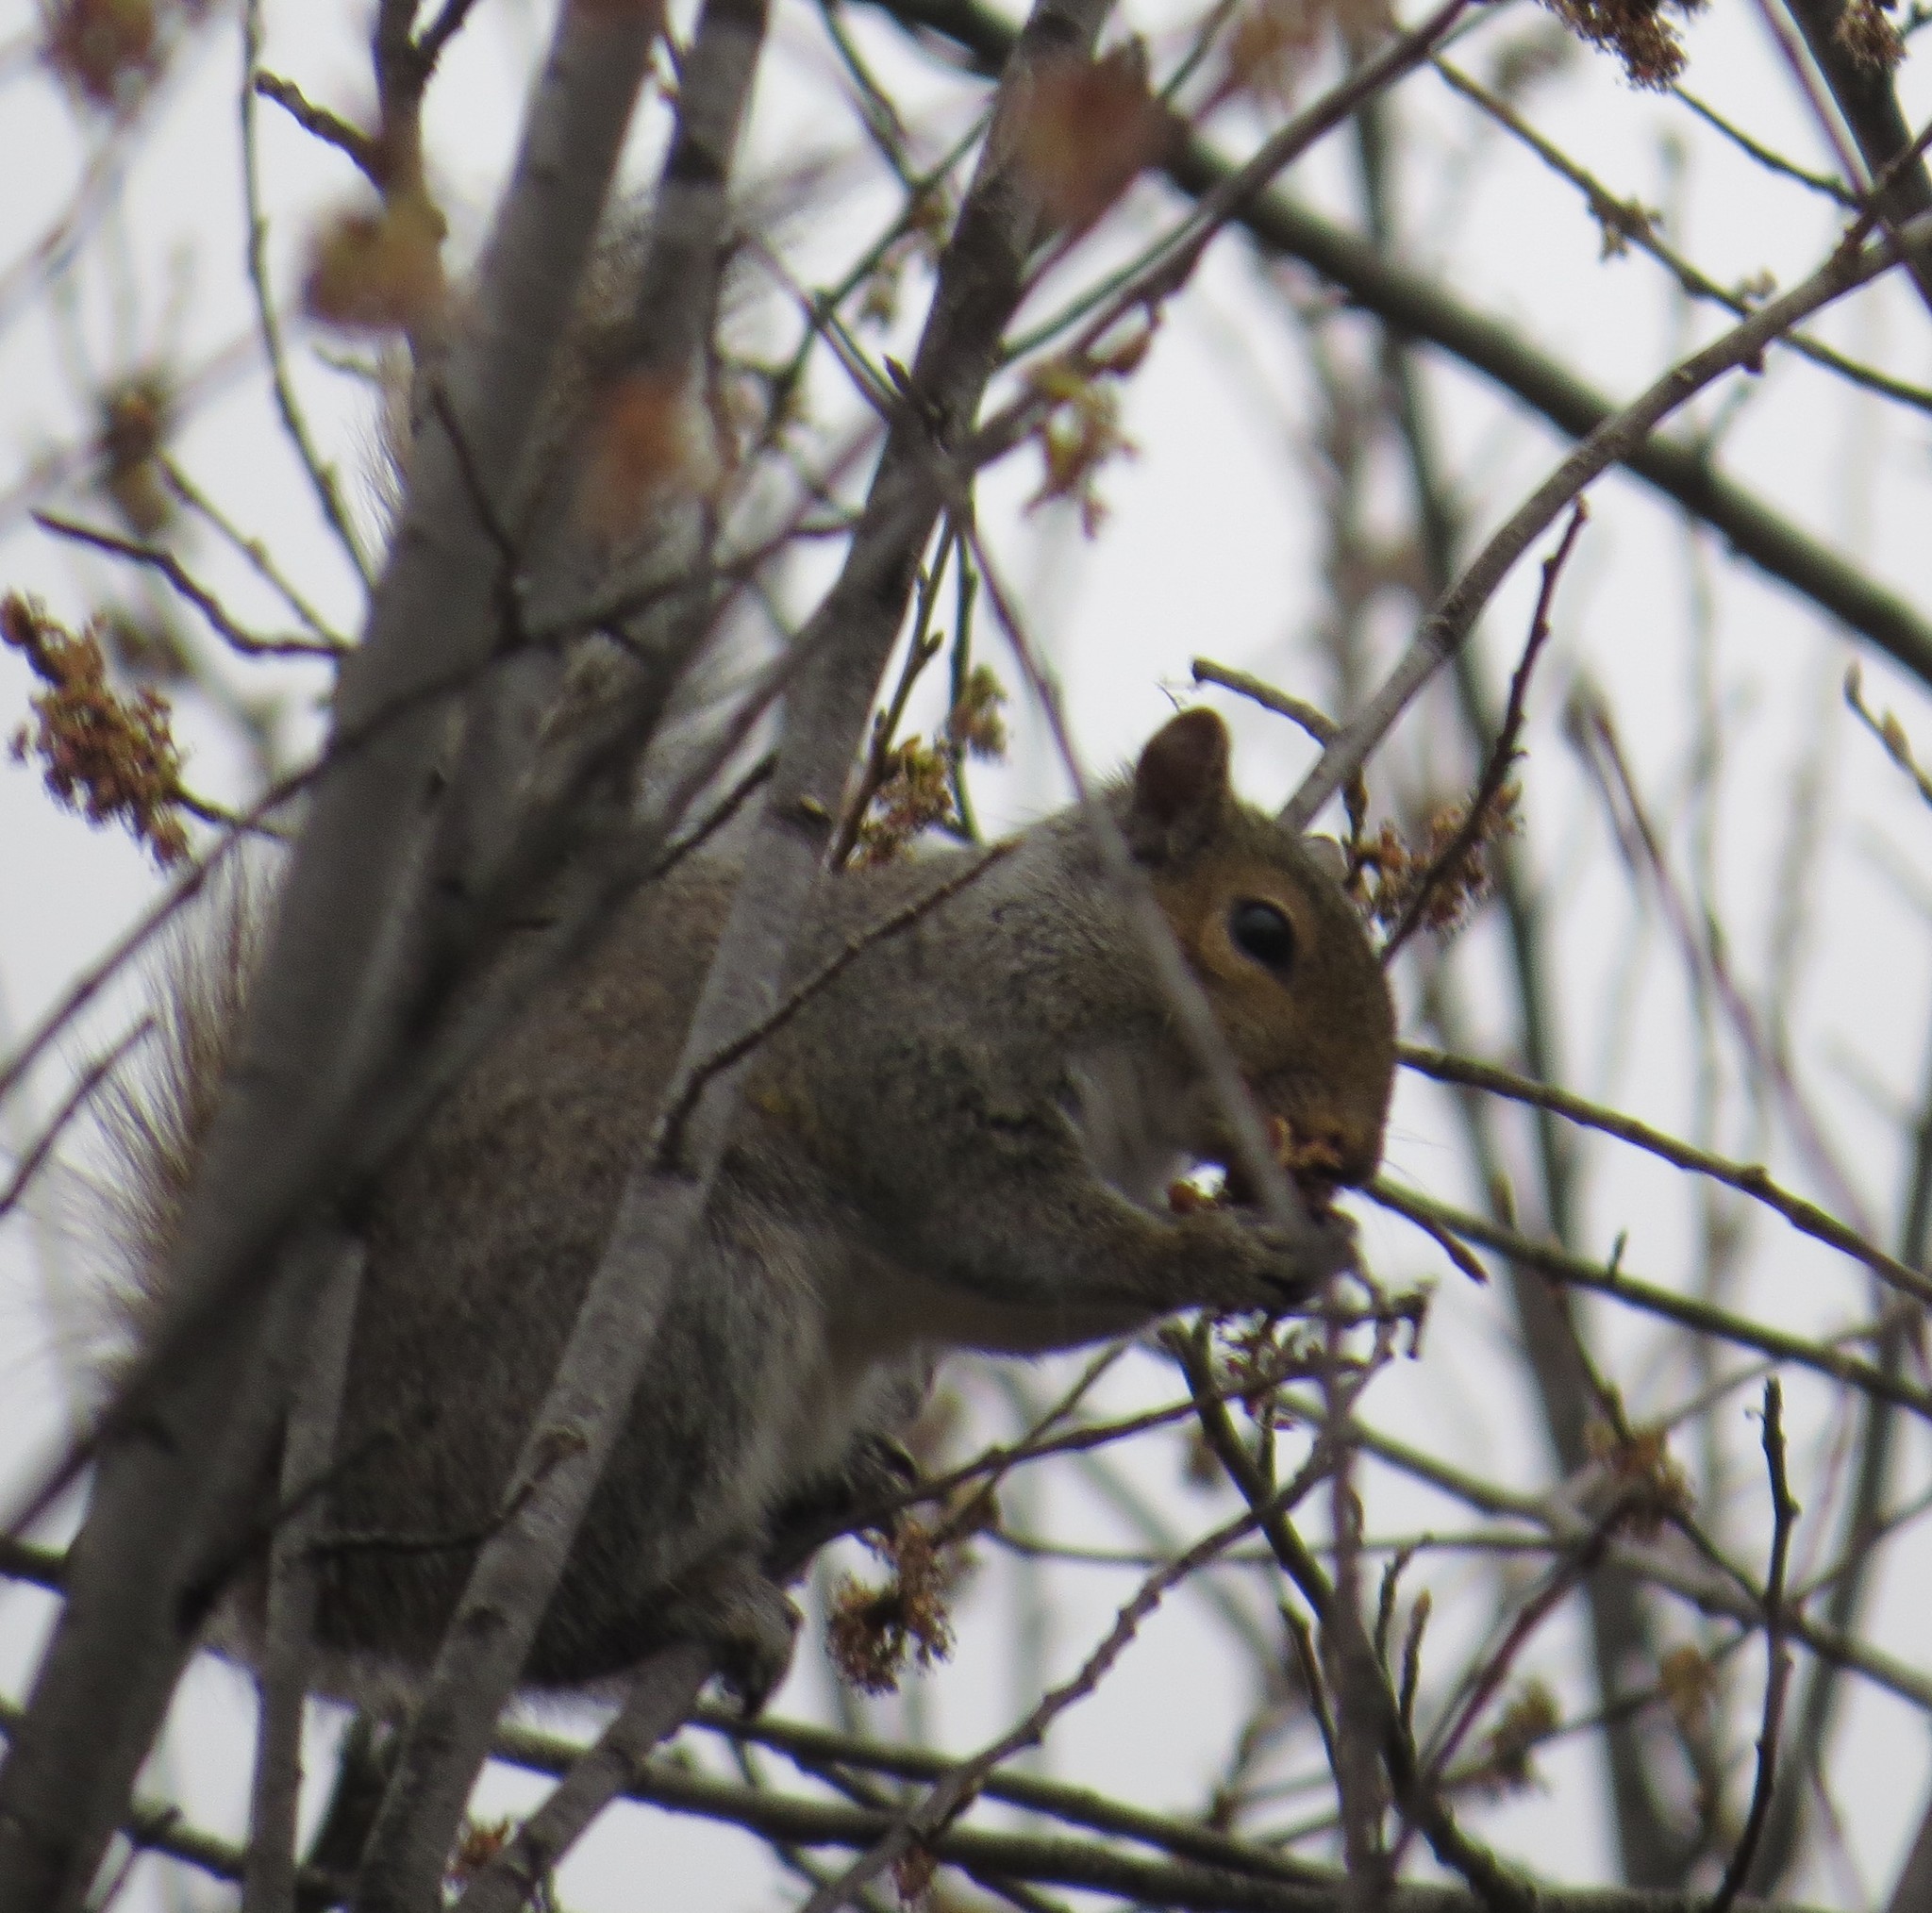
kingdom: Animalia
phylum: Chordata
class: Mammalia
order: Rodentia
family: Sciuridae
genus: Sciurus
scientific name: Sciurus carolinensis
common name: Eastern gray squirrel
